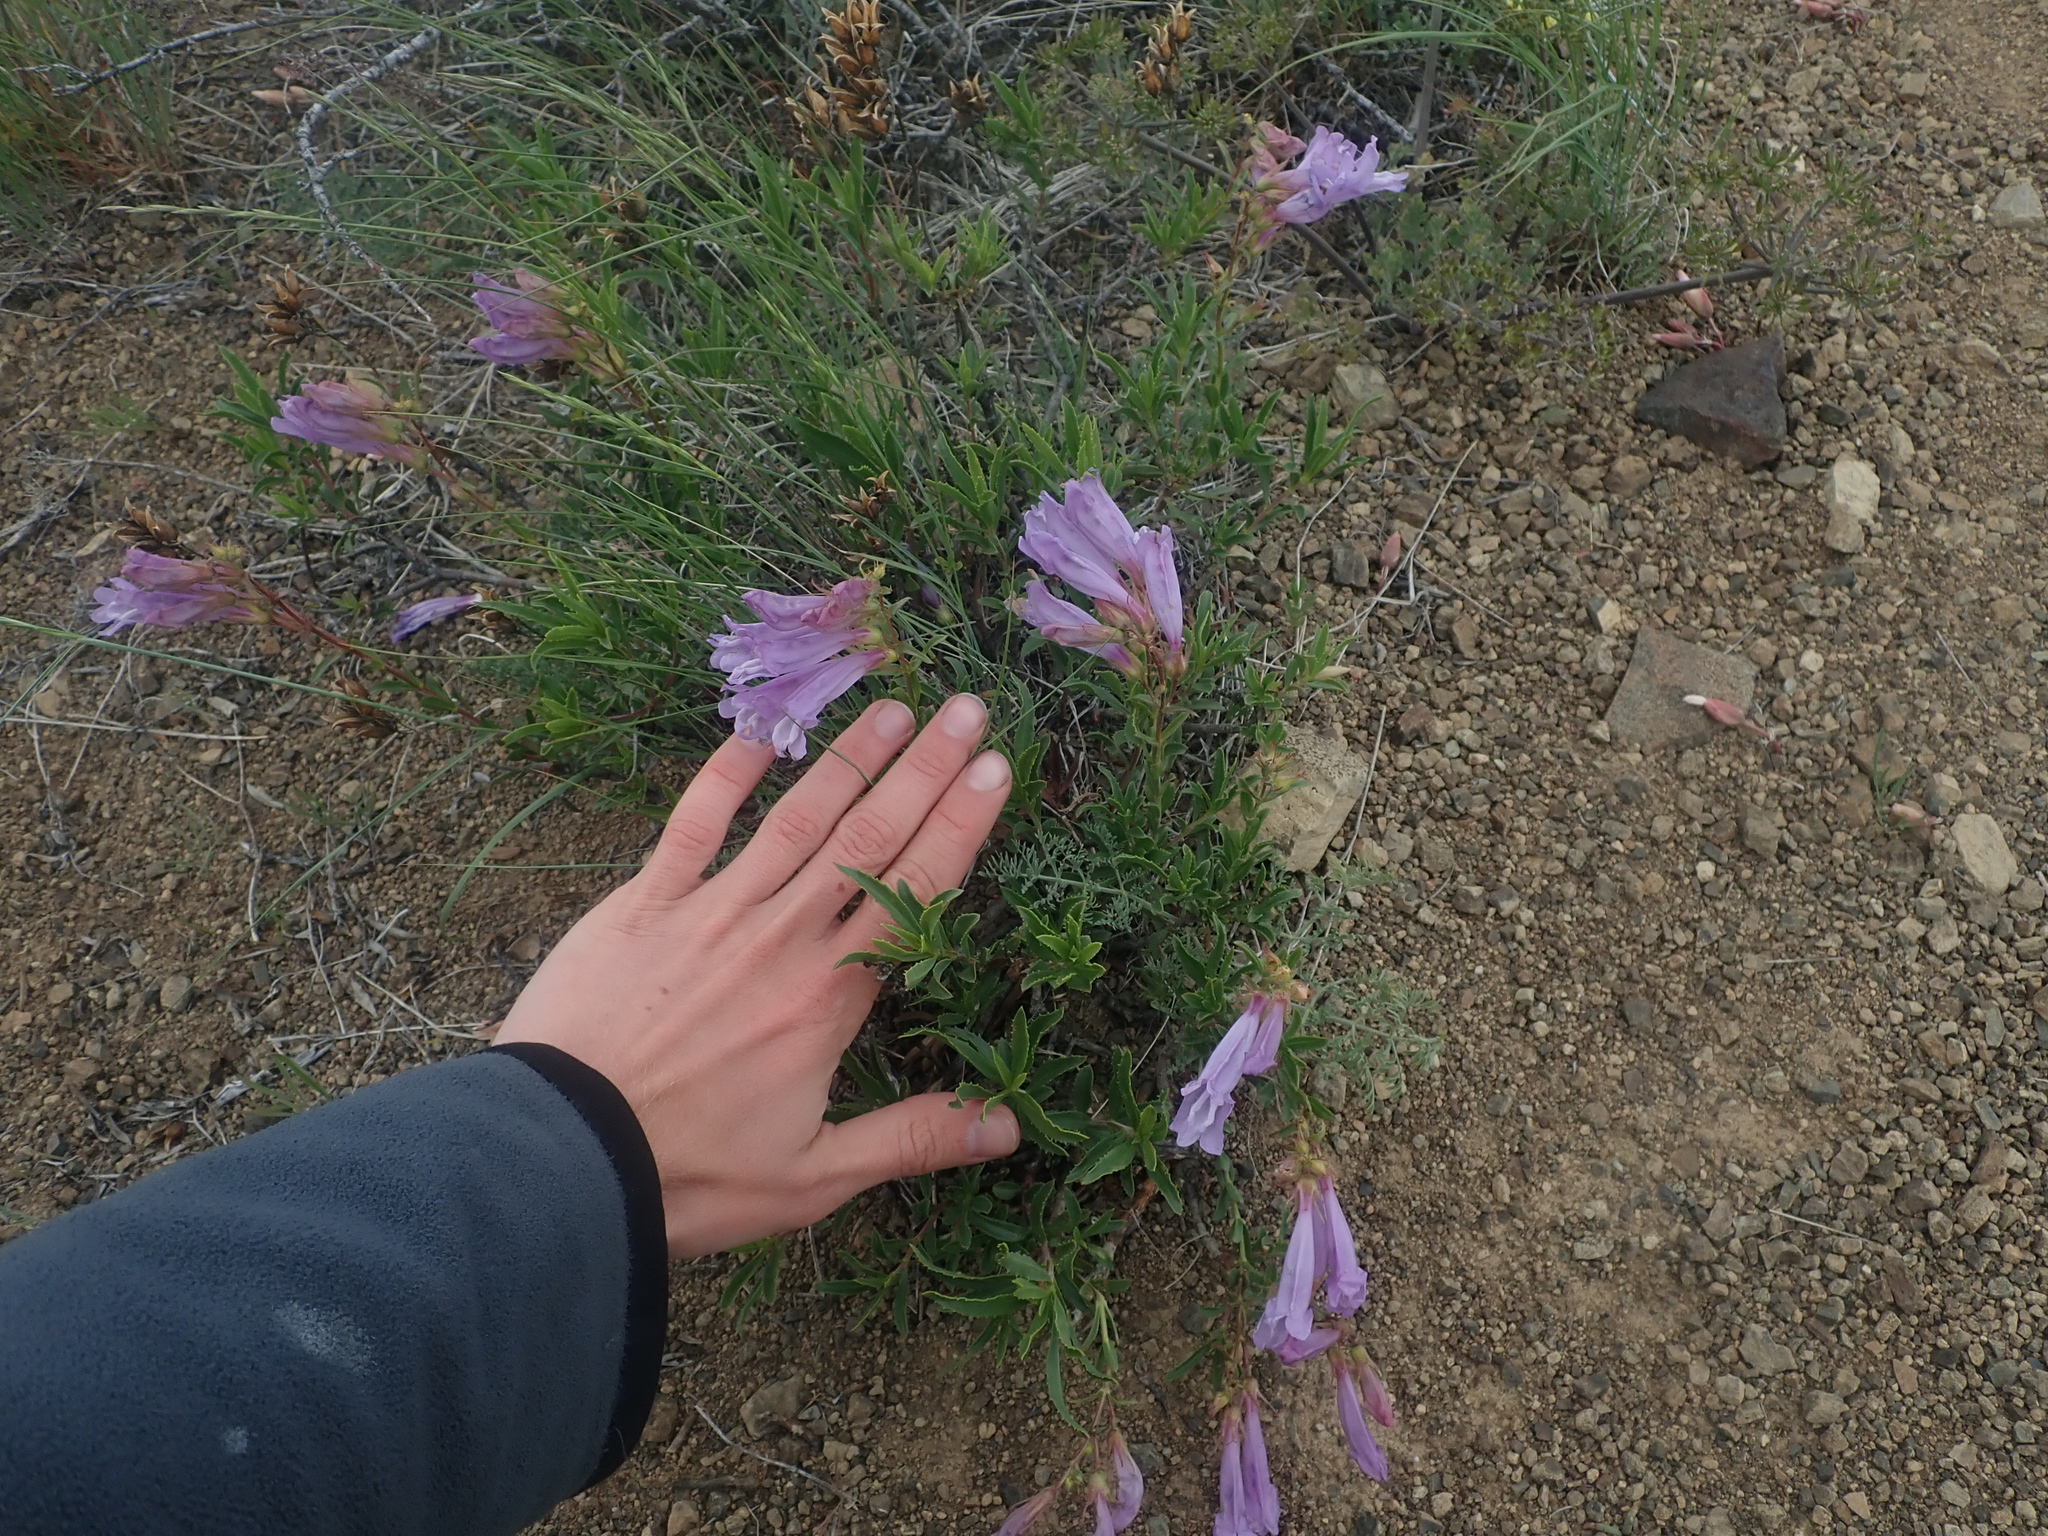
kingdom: Plantae
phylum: Tracheophyta
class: Magnoliopsida
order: Lamiales
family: Plantaginaceae
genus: Penstemon
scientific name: Penstemon fruticosus
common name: Bush penstemon
